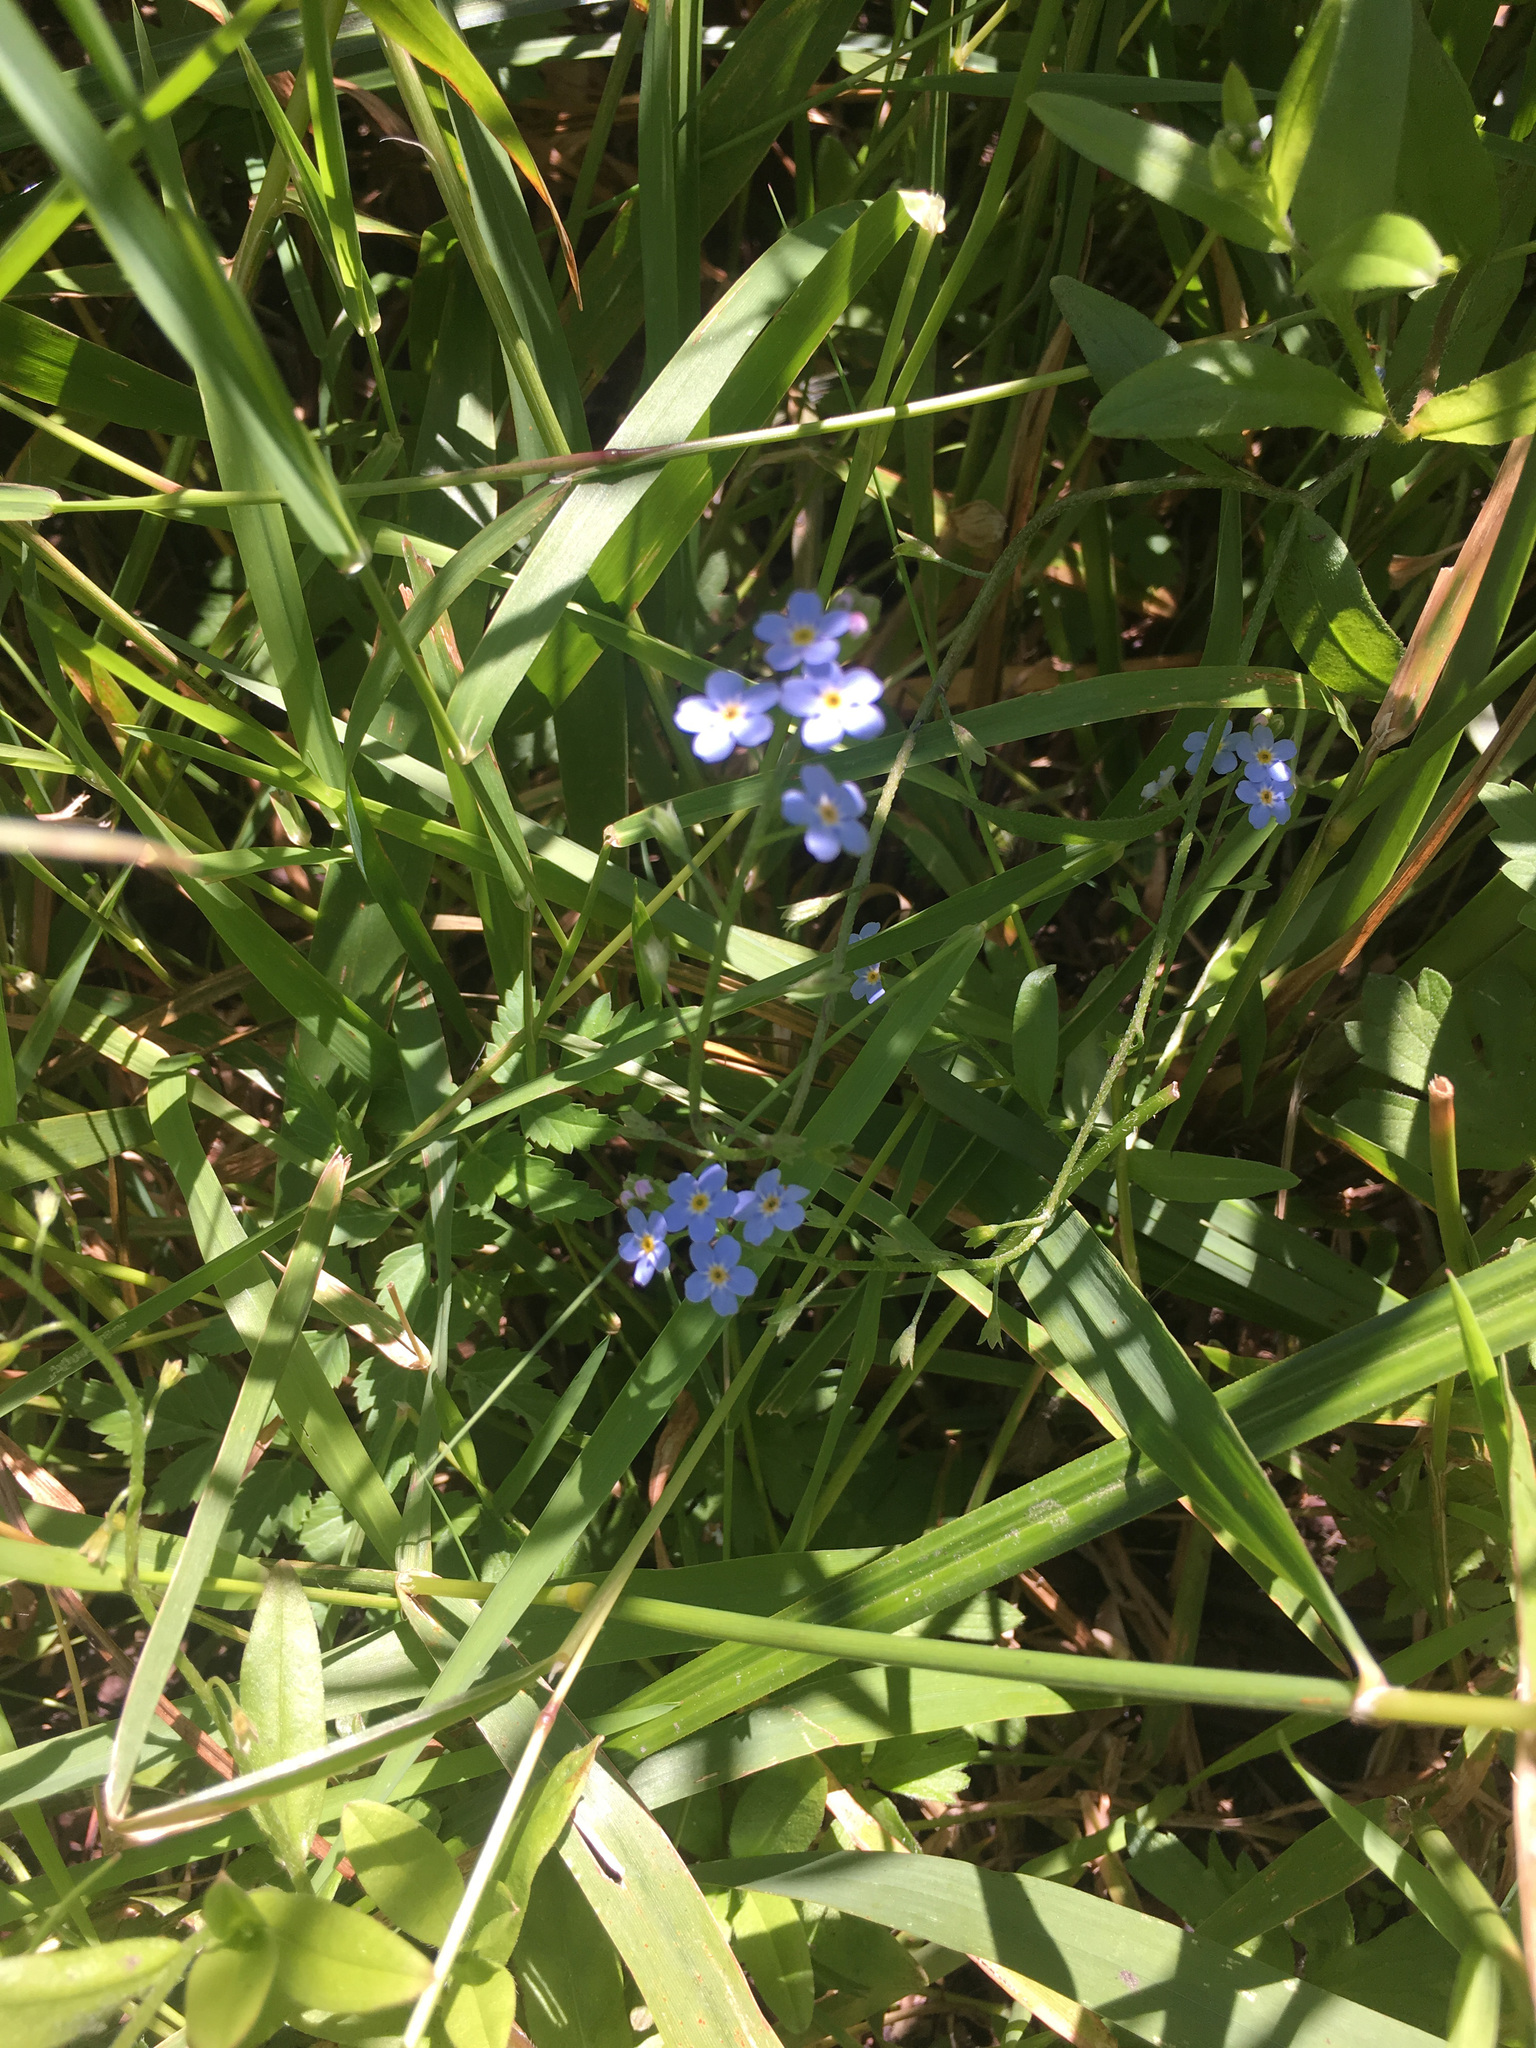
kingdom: Plantae
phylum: Tracheophyta
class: Magnoliopsida
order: Boraginales
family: Boraginaceae
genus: Myosotis
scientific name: Myosotis scorpioides
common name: Water forget-me-not
